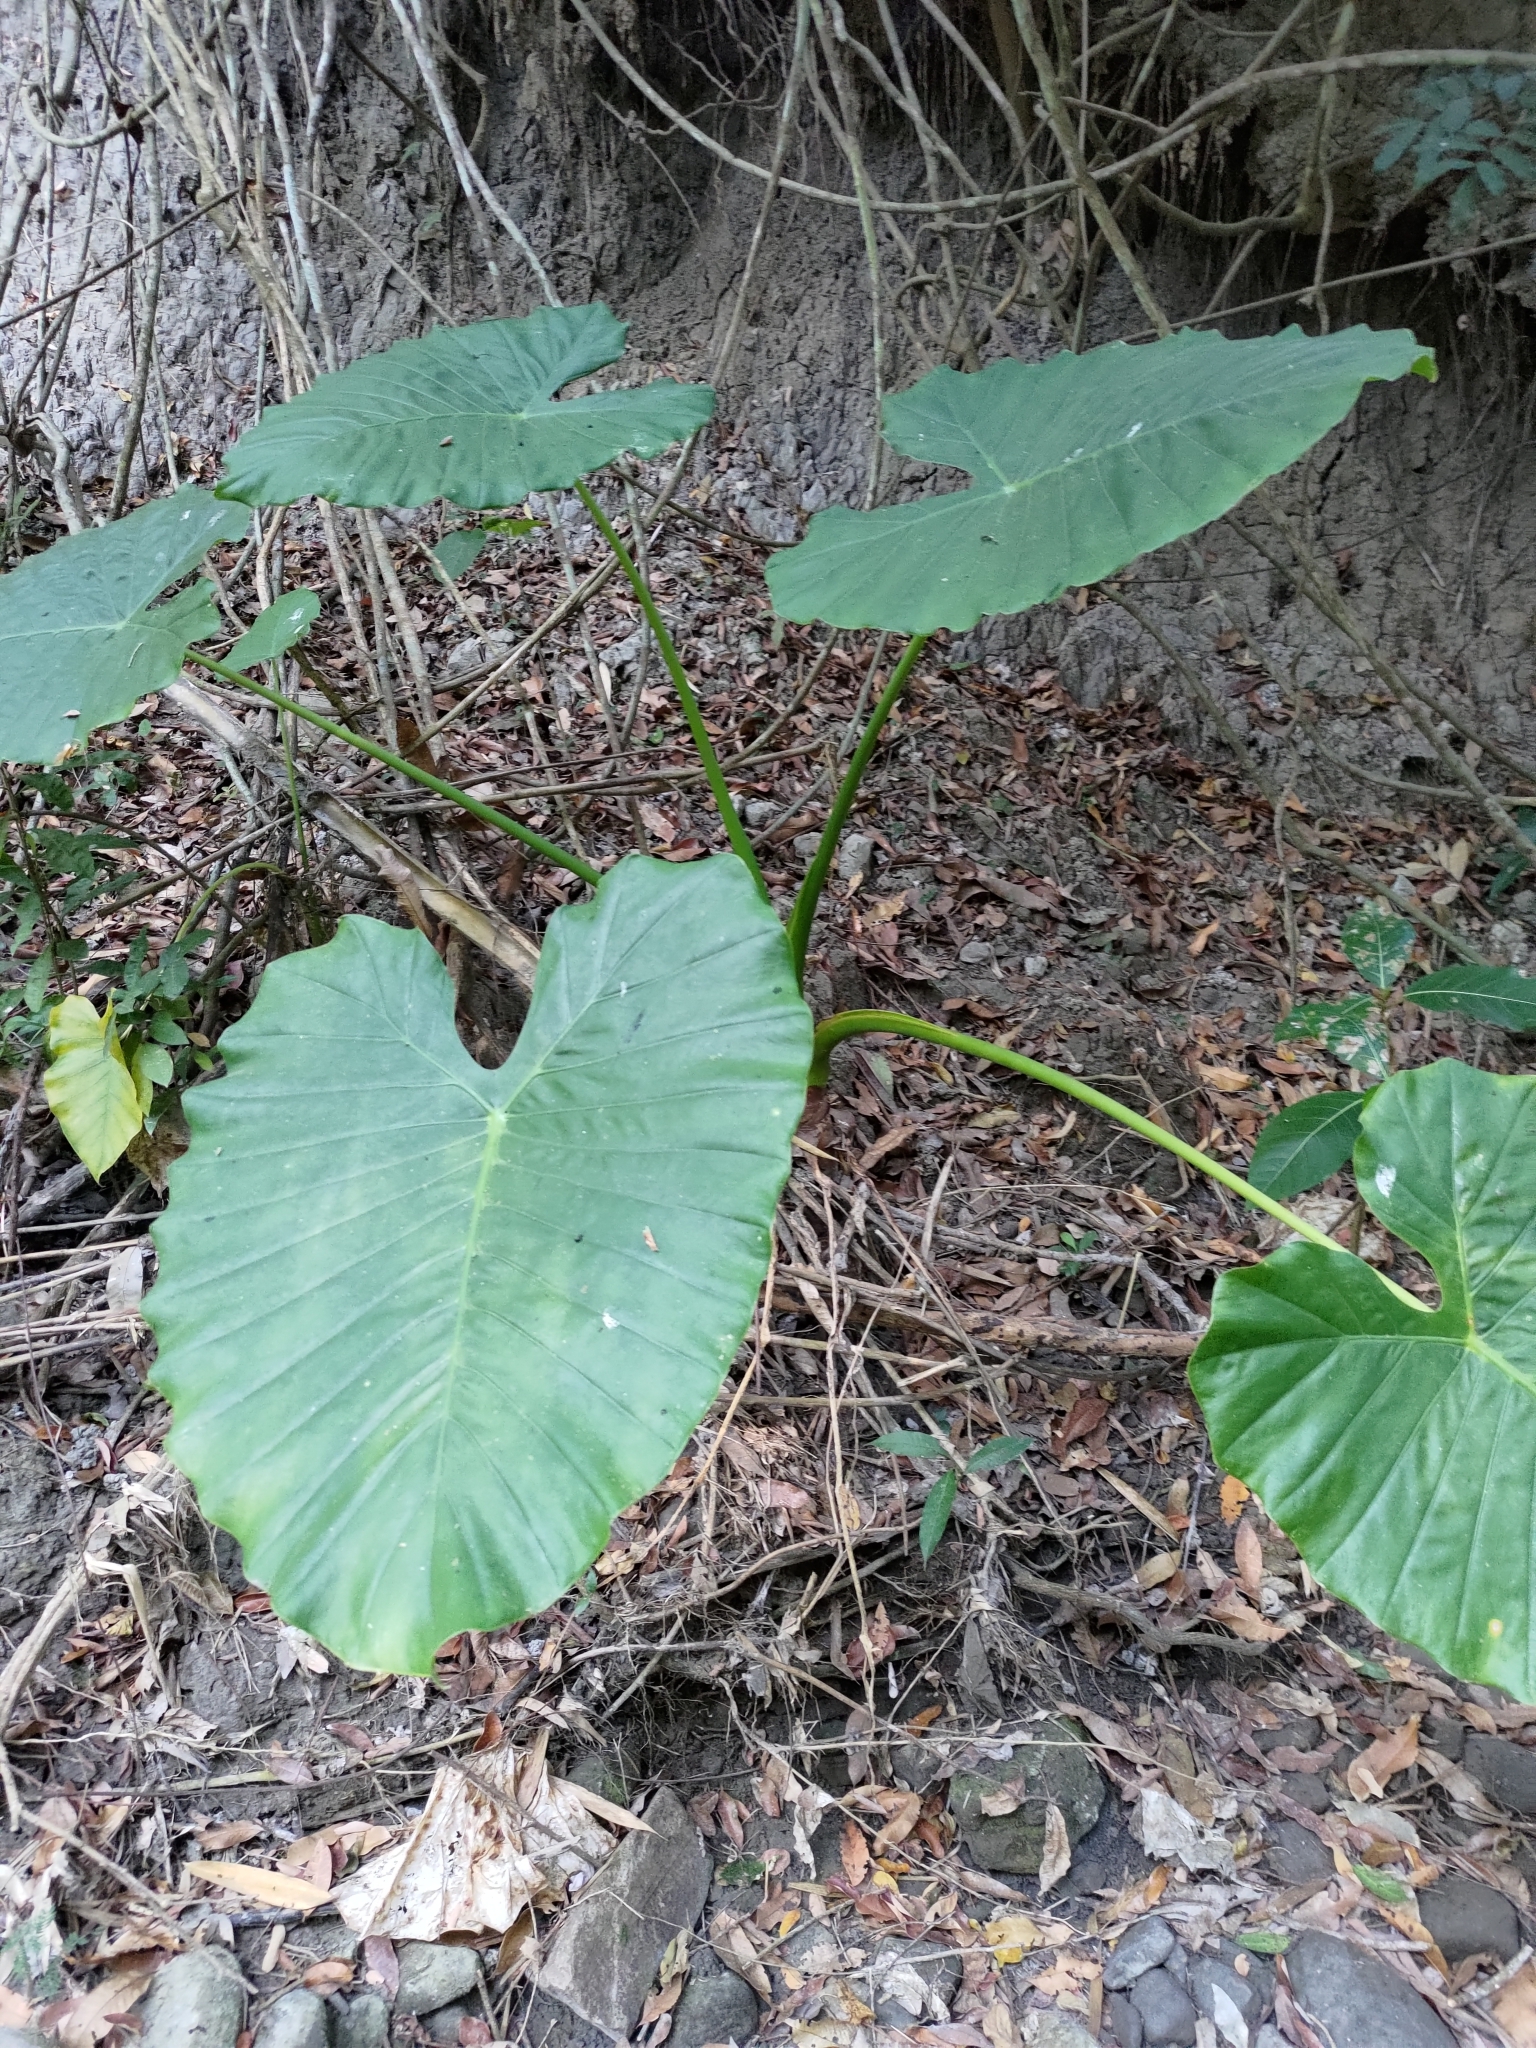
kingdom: Plantae
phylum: Tracheophyta
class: Liliopsida
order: Alismatales
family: Araceae
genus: Alocasia
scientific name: Alocasia odora
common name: Asian taro
